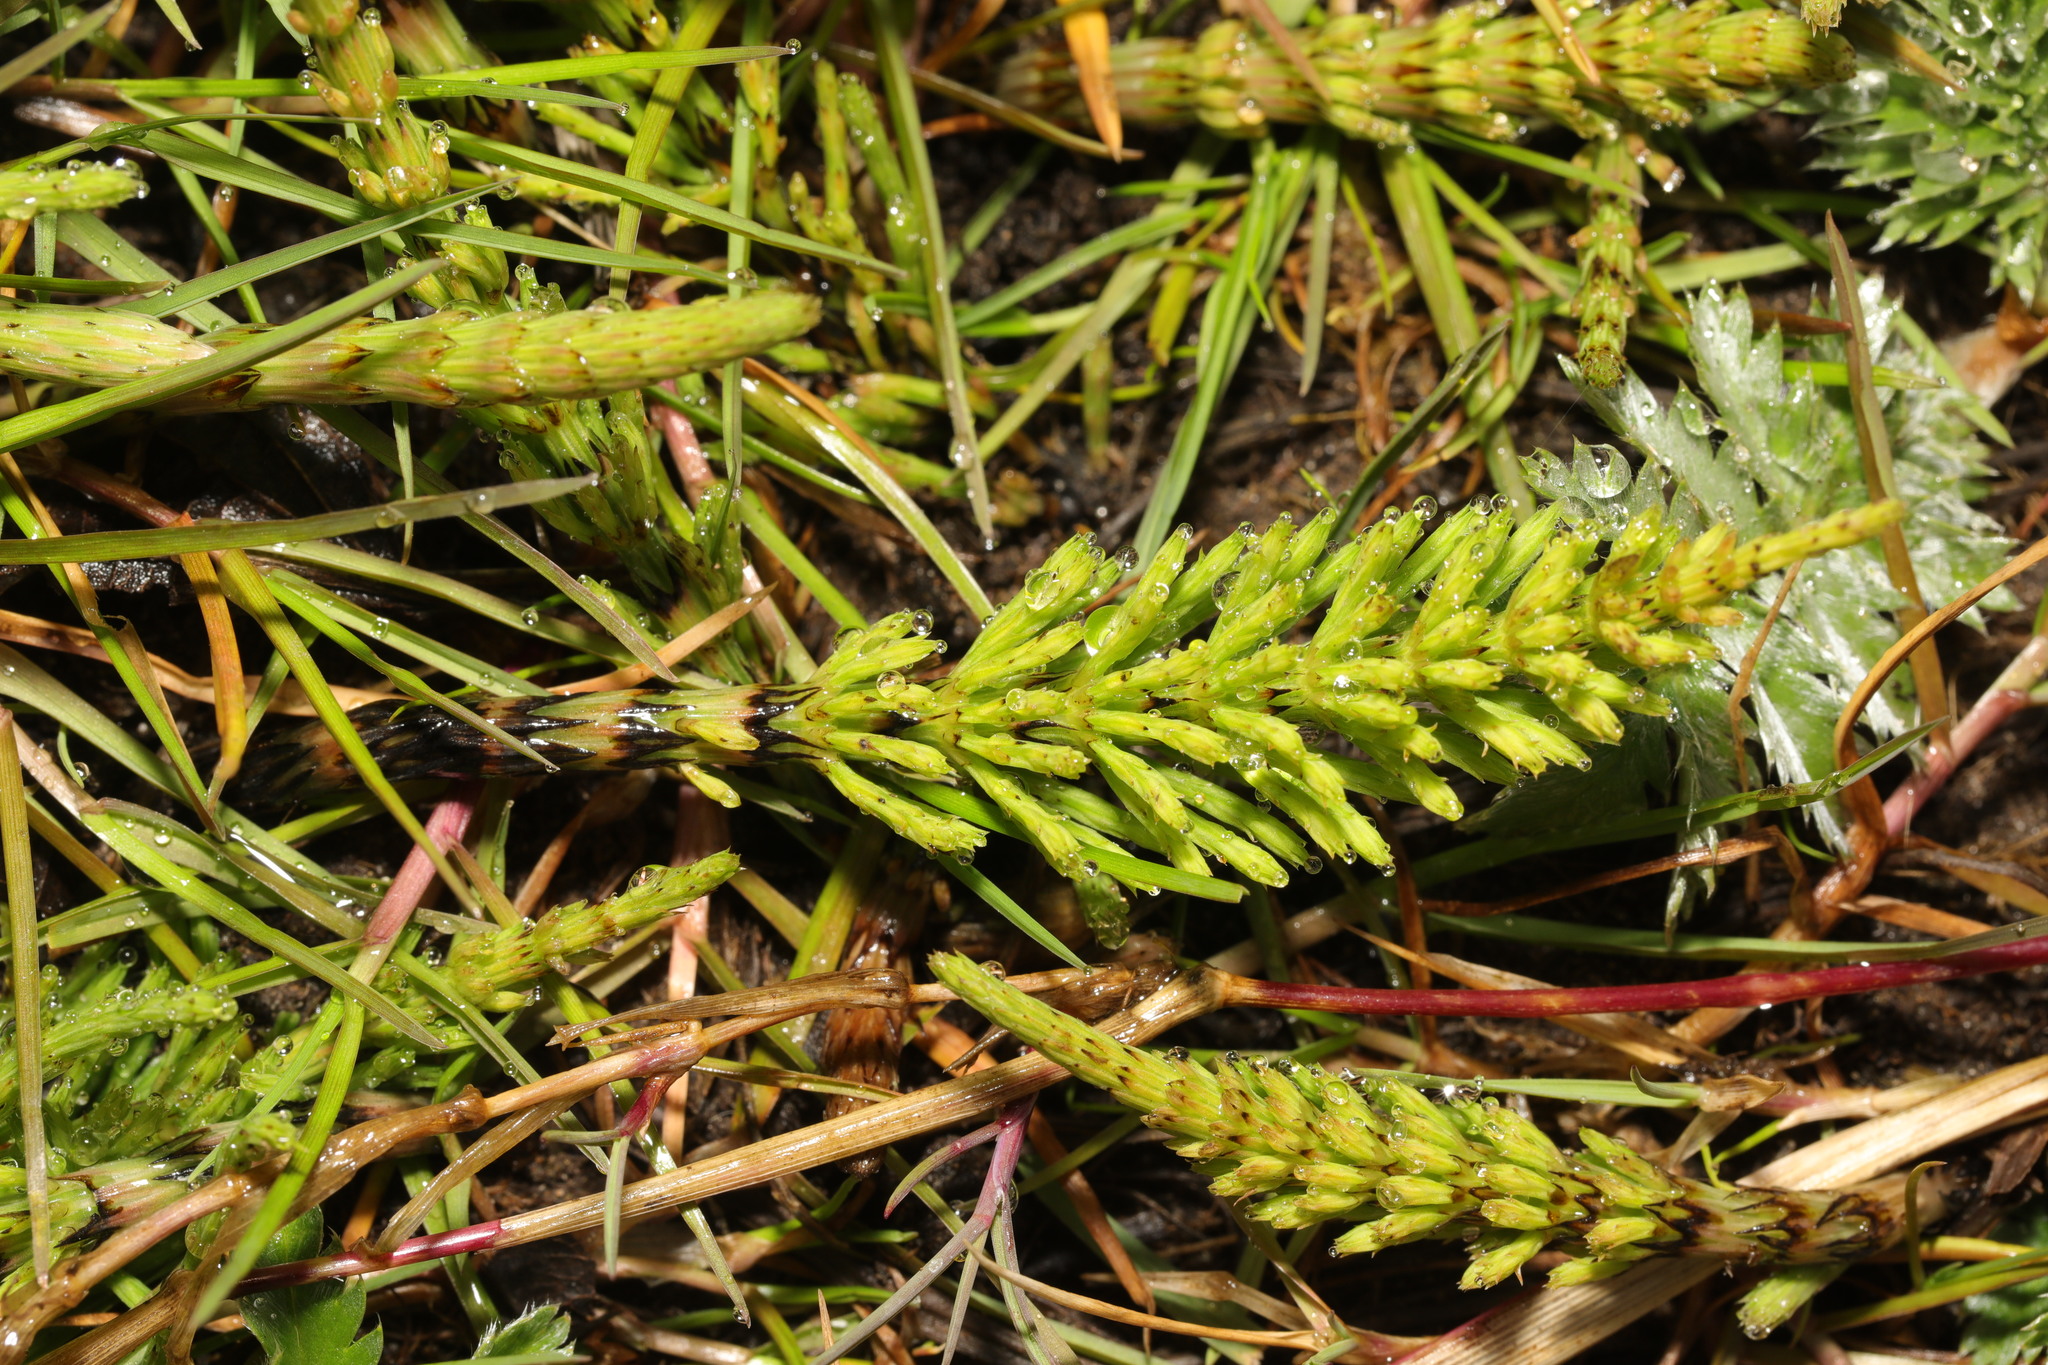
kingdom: Plantae
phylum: Tracheophyta
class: Polypodiopsida
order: Equisetales
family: Equisetaceae
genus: Equisetum
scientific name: Equisetum arvense
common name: Field horsetail
